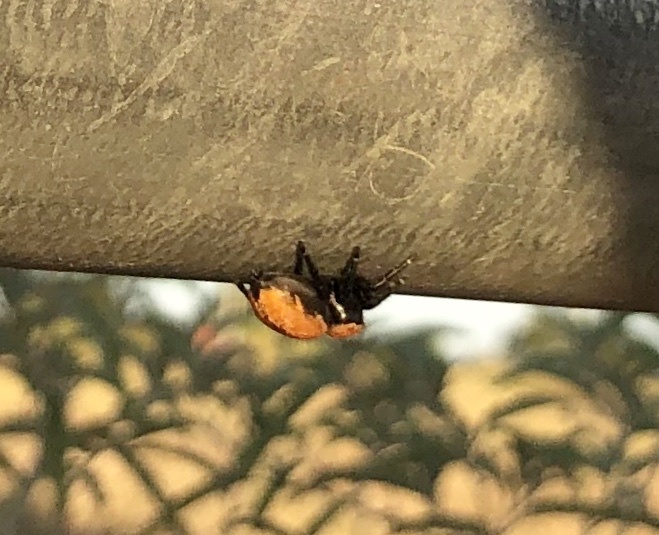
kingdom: Animalia
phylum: Arthropoda
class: Arachnida
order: Araneae
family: Salticidae
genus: Phidippus
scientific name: Phidippus apacheanus
